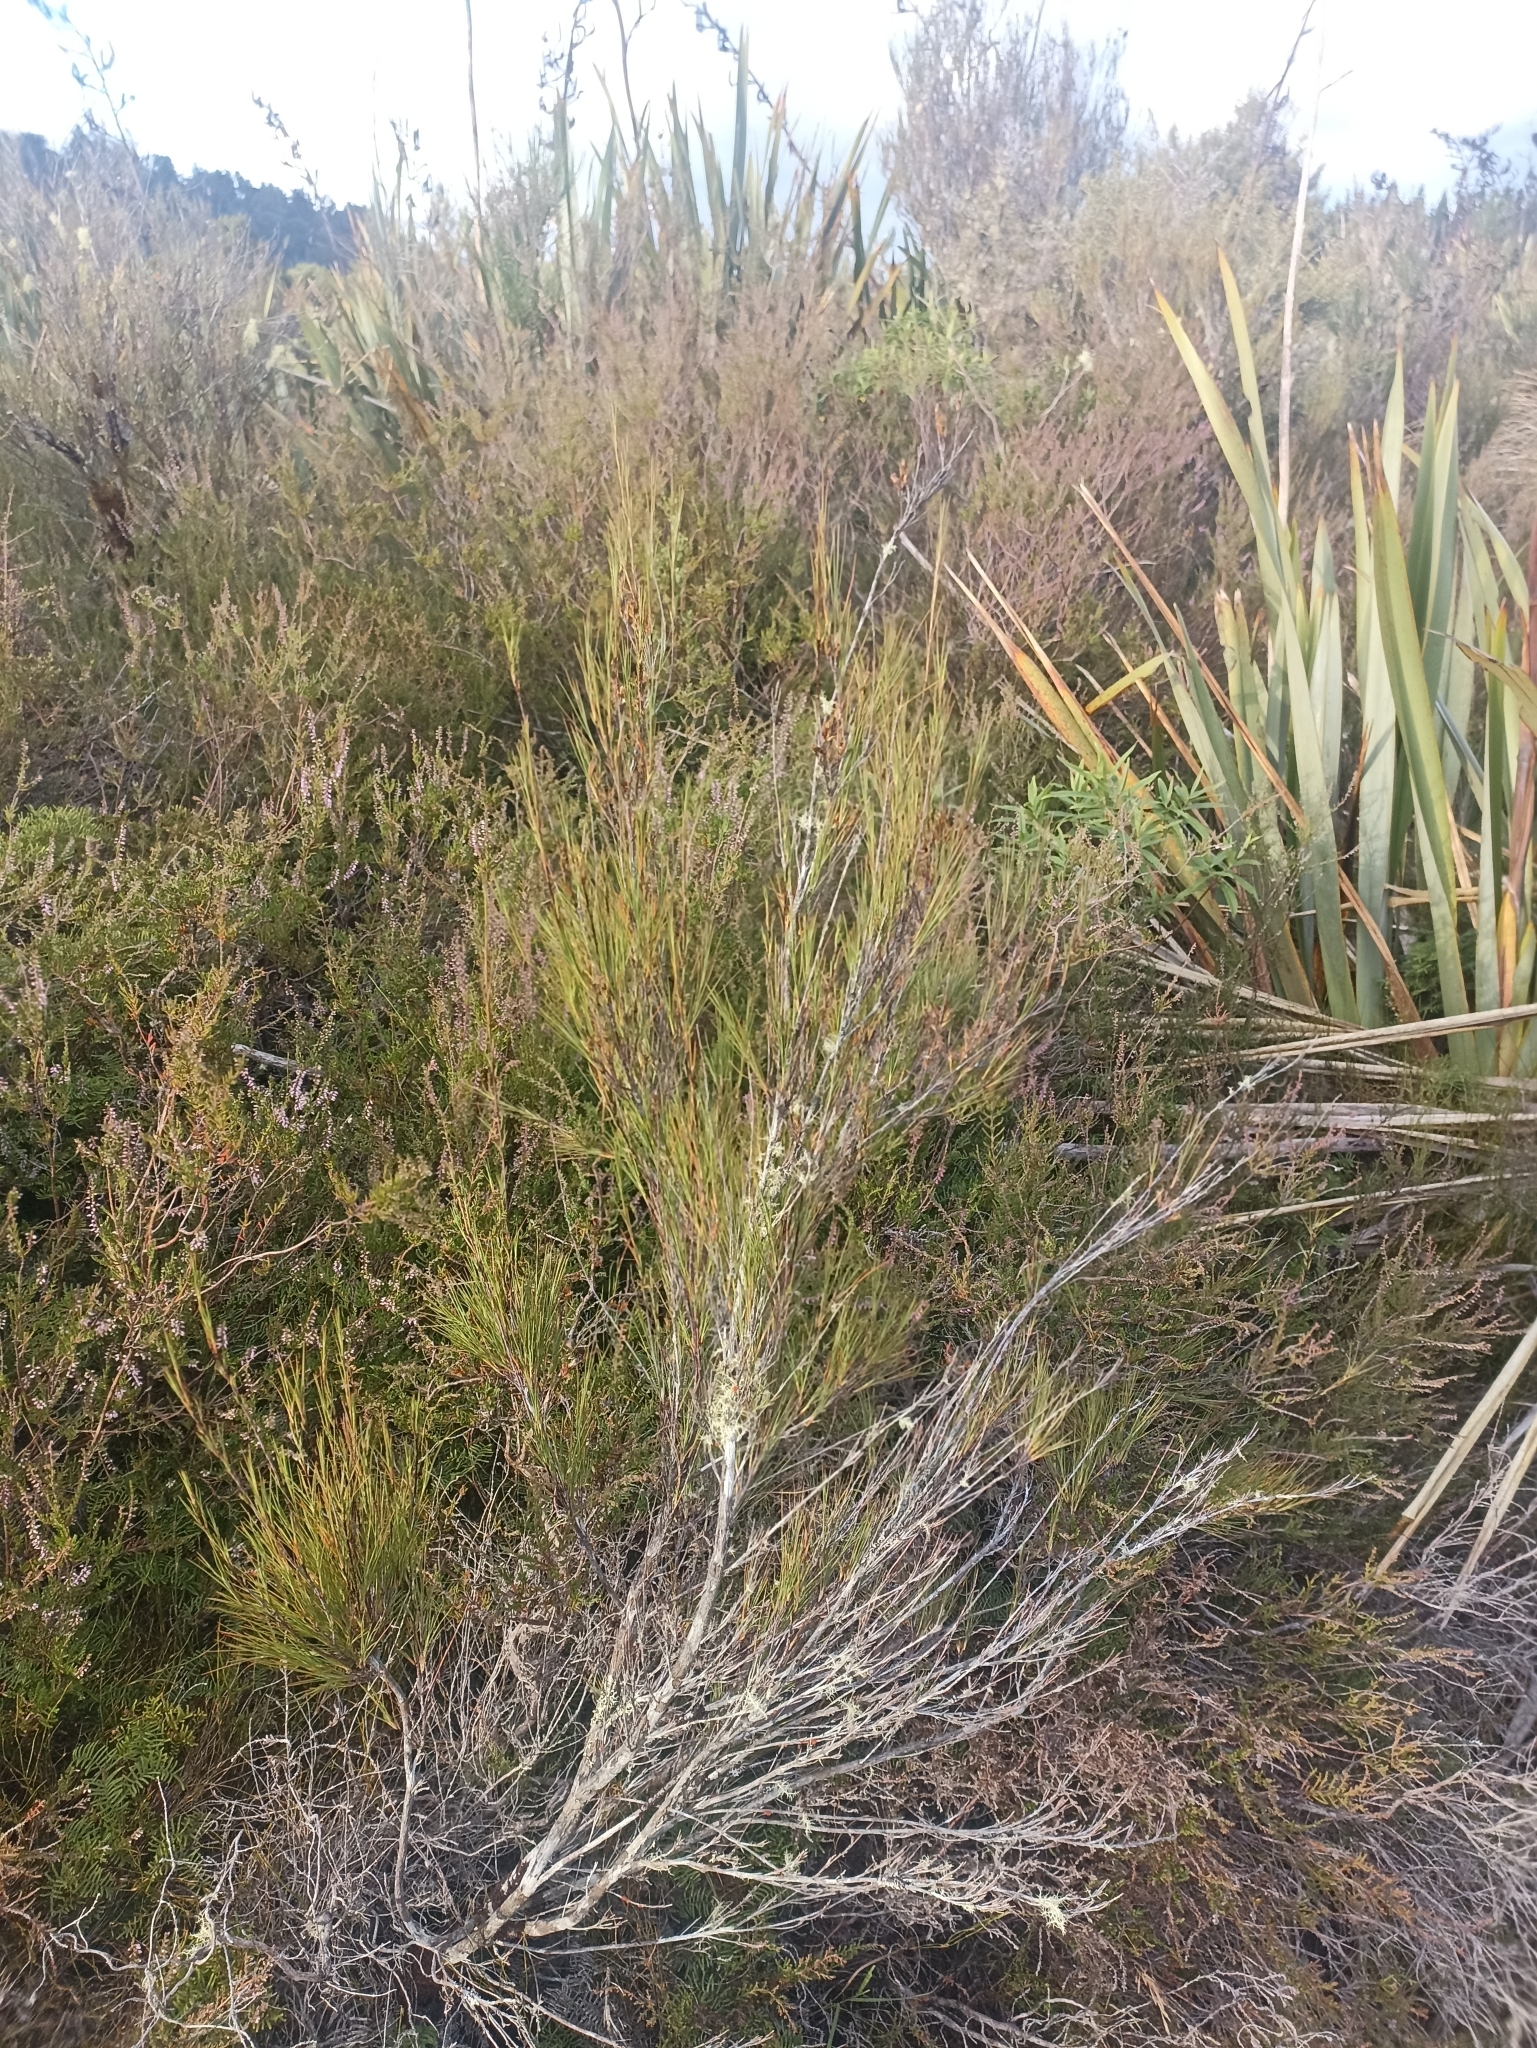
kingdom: Plantae
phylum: Tracheophyta
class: Magnoliopsida
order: Ericales
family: Ericaceae
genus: Dracophyllum
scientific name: Dracophyllum subulatum
